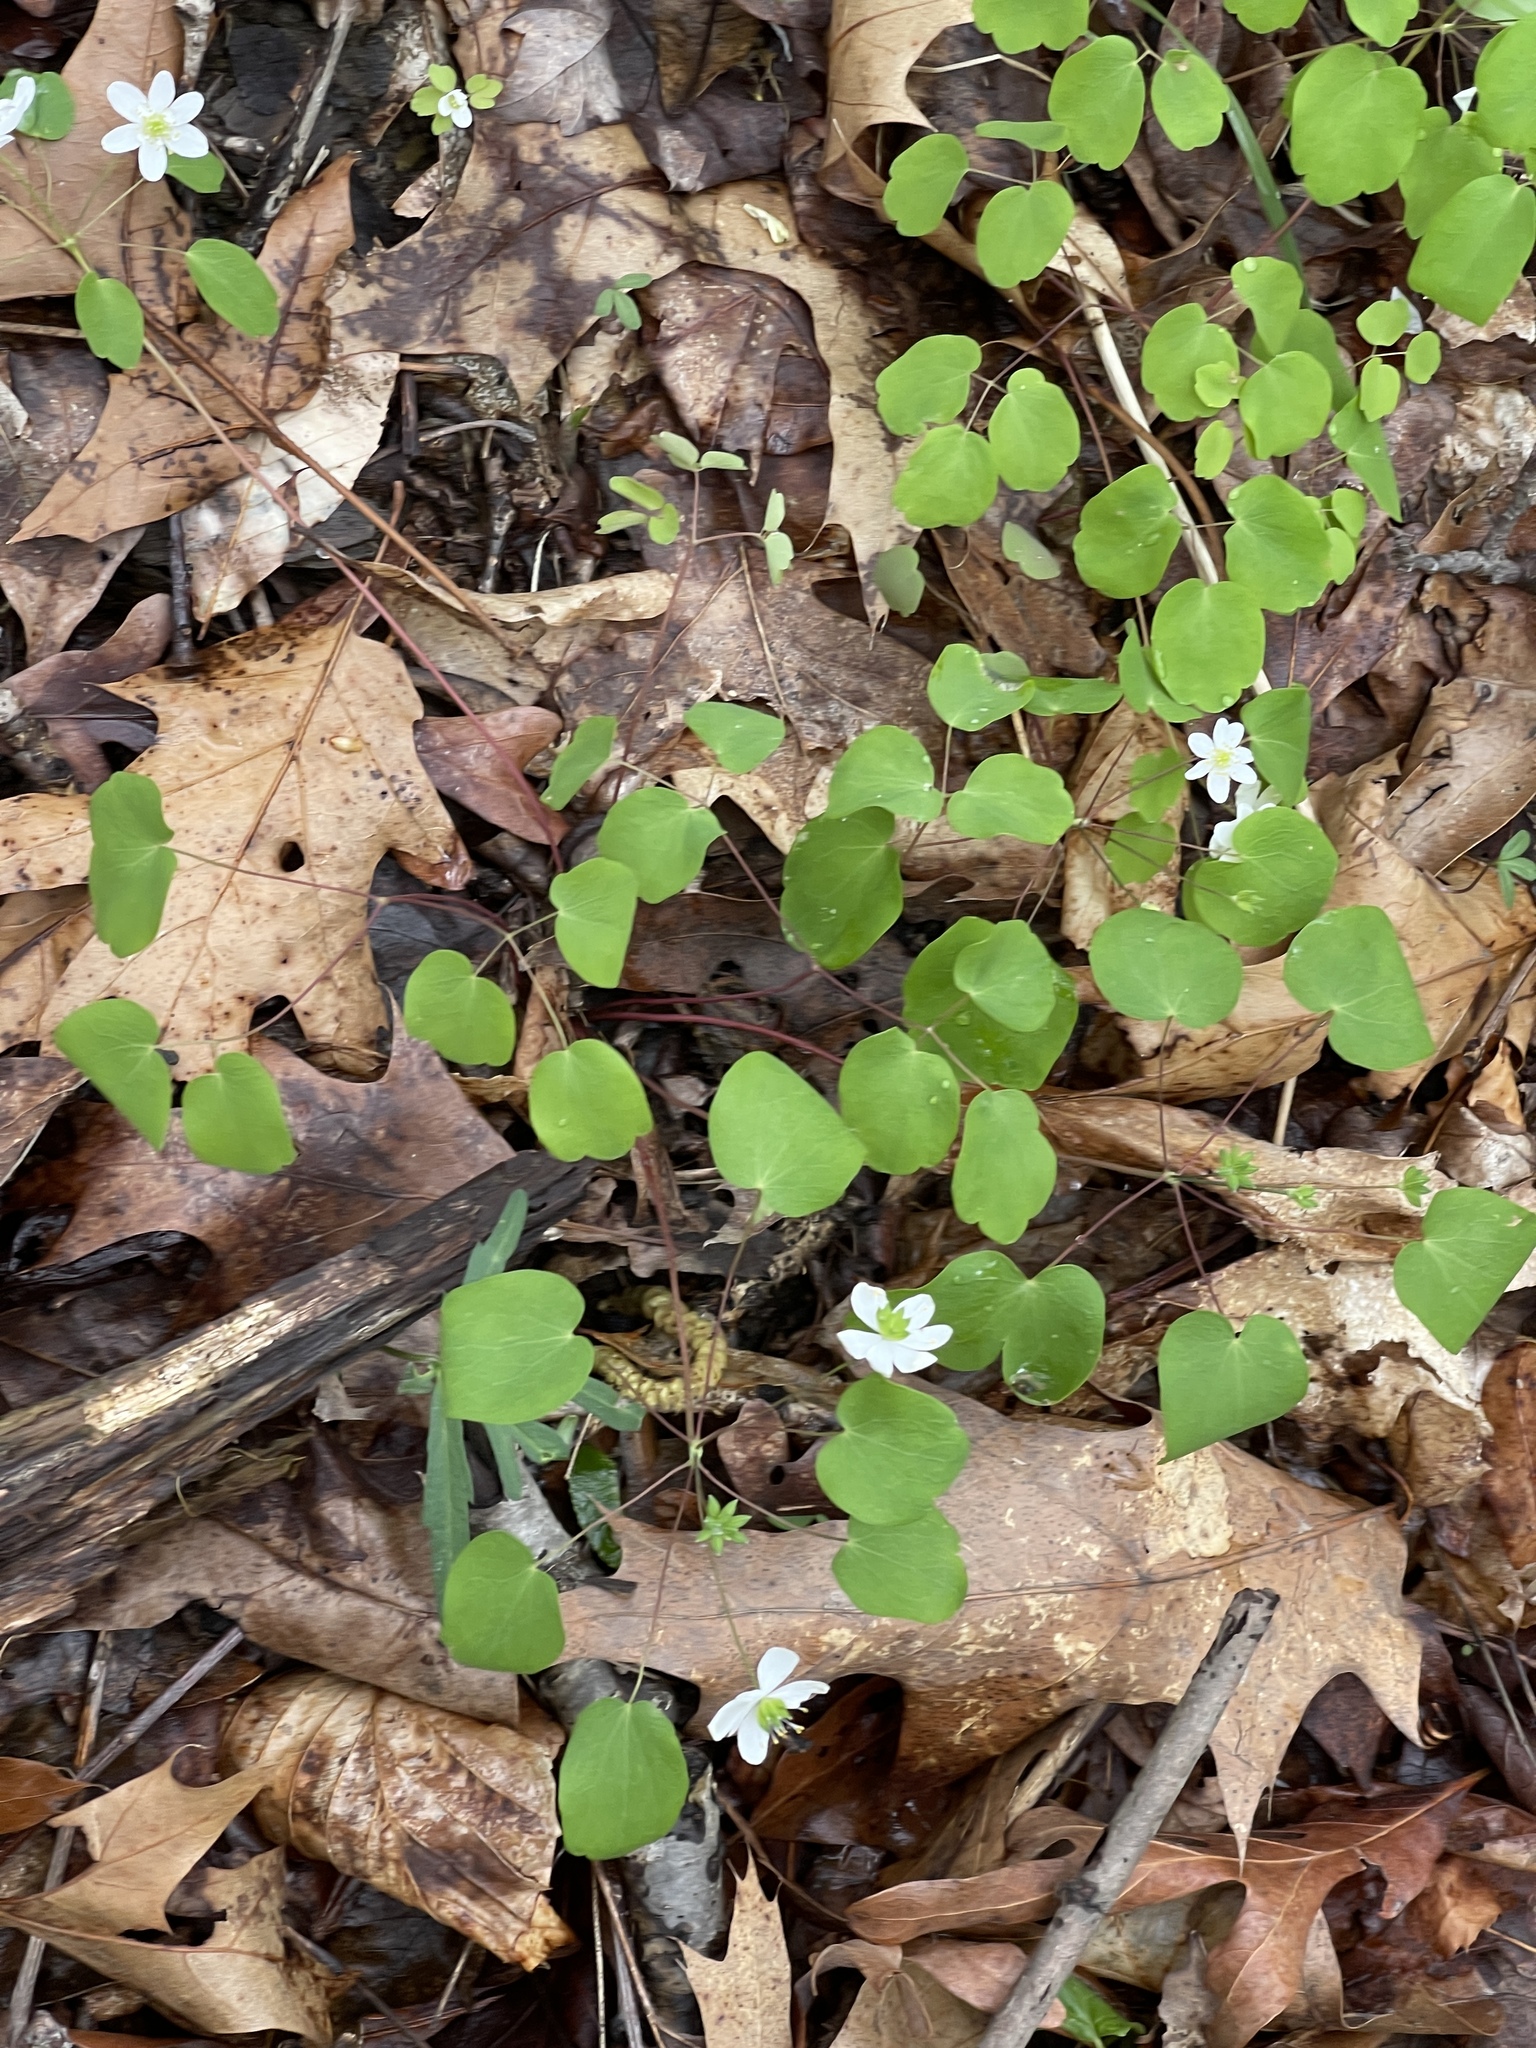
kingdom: Plantae
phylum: Tracheophyta
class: Magnoliopsida
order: Ranunculales
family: Ranunculaceae
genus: Thalictrum
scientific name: Thalictrum thalictroides
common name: Rue-anemone
